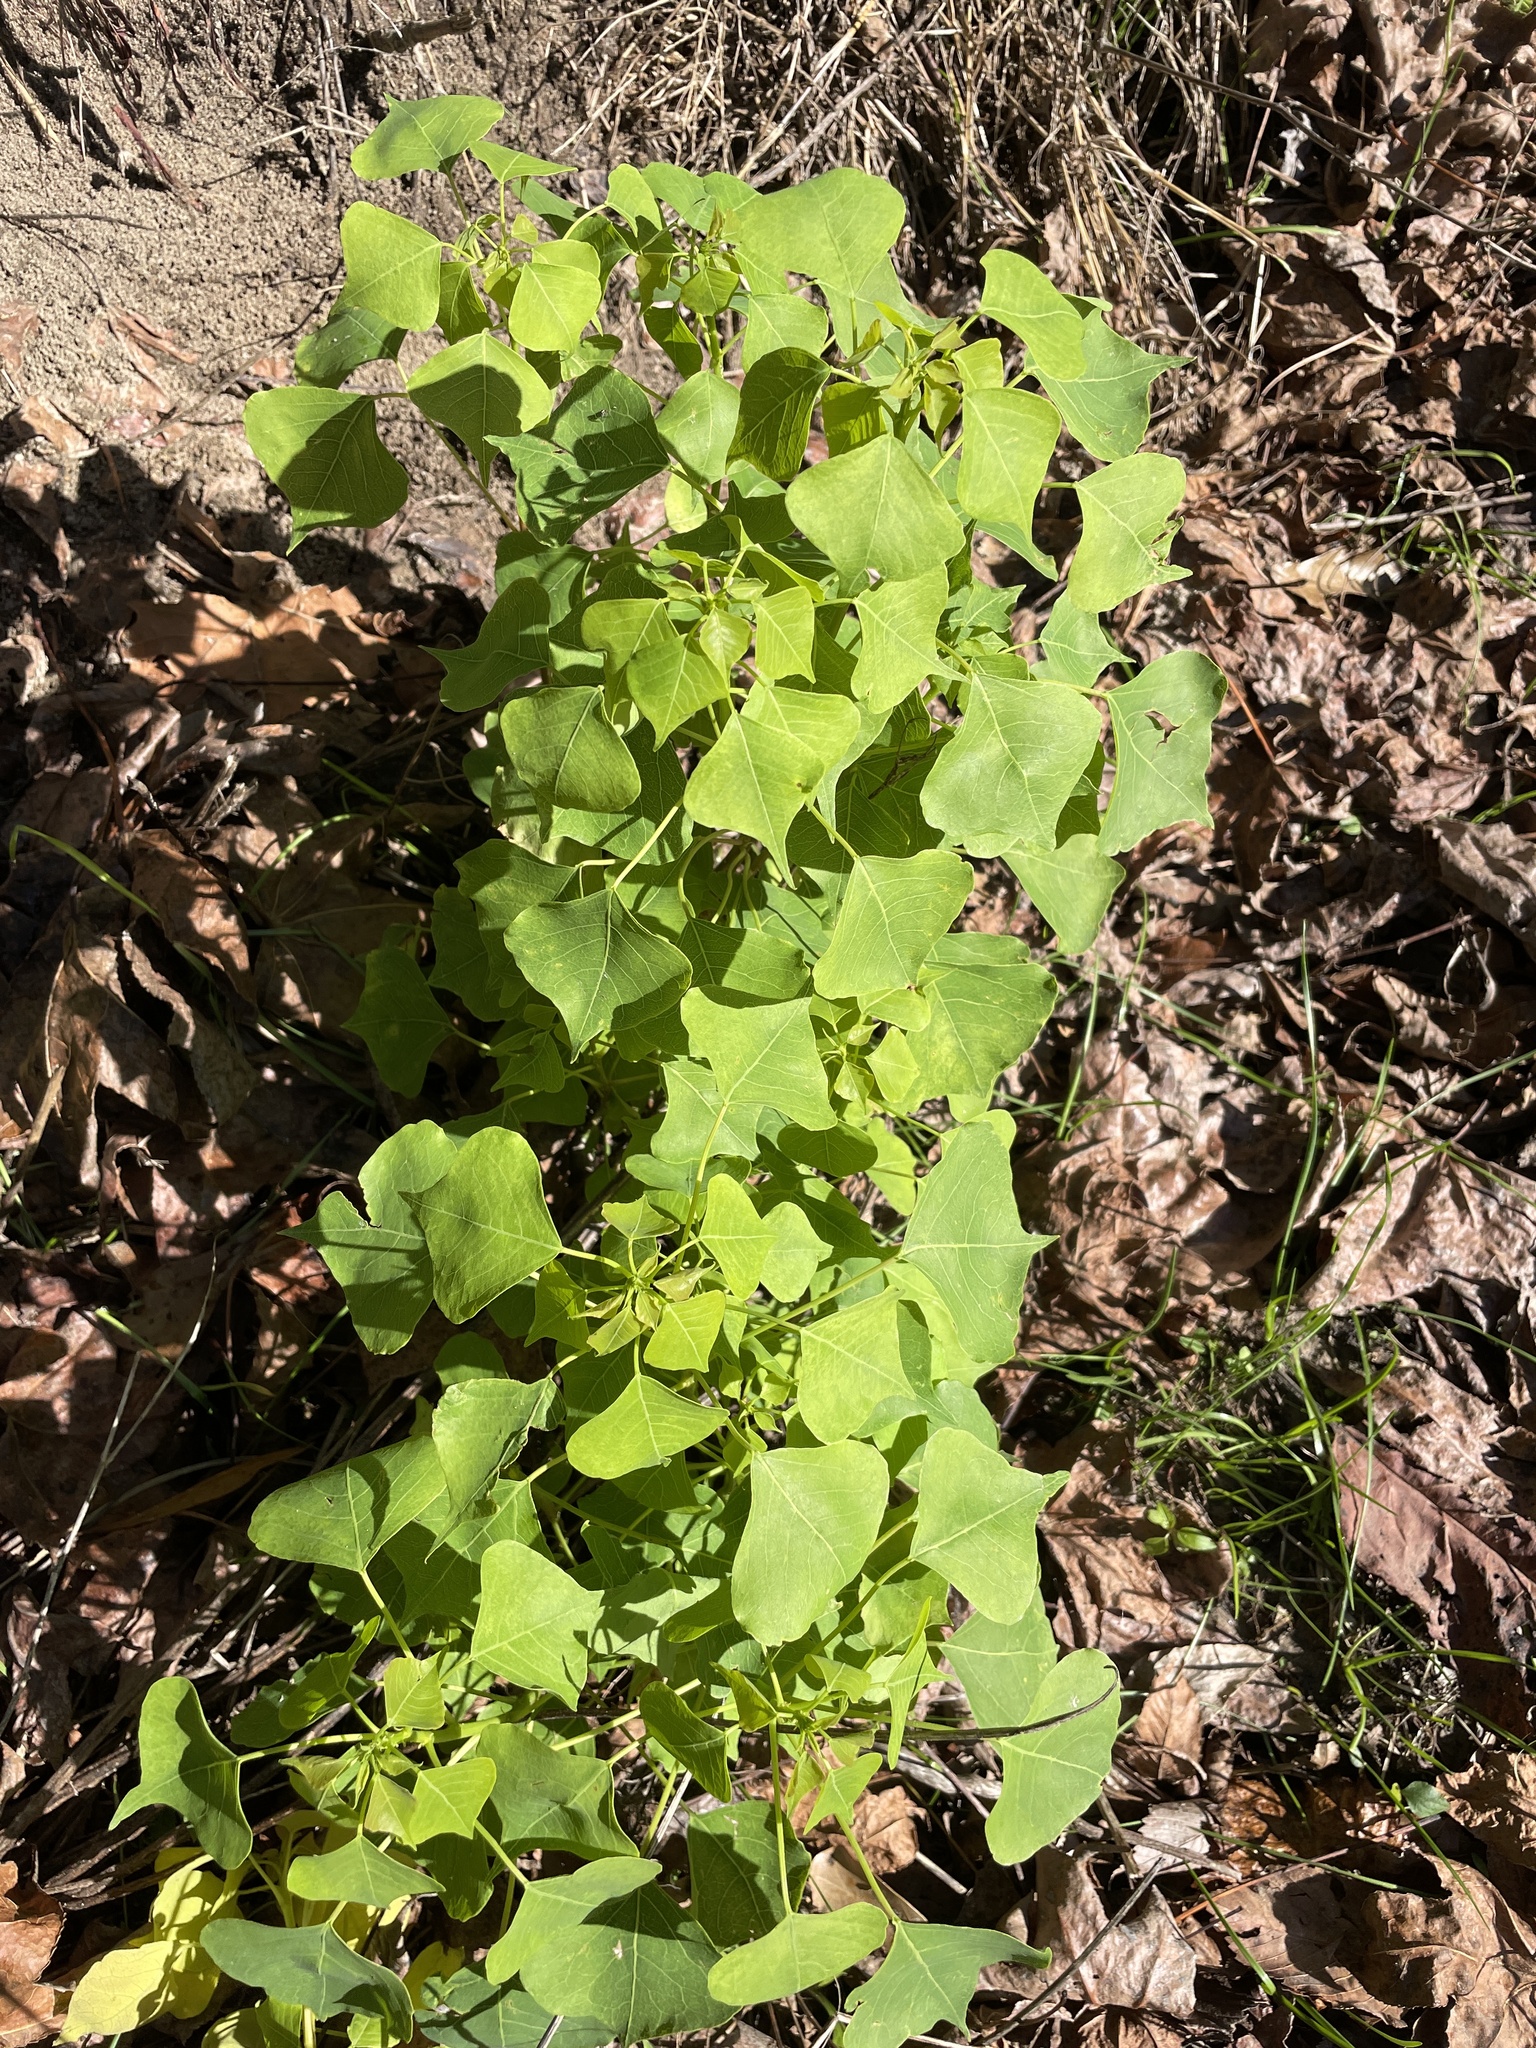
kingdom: Plantae
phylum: Tracheophyta
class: Magnoliopsida
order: Malpighiales
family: Euphorbiaceae
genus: Triadica
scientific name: Triadica sebifera
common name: Chinese tallow
